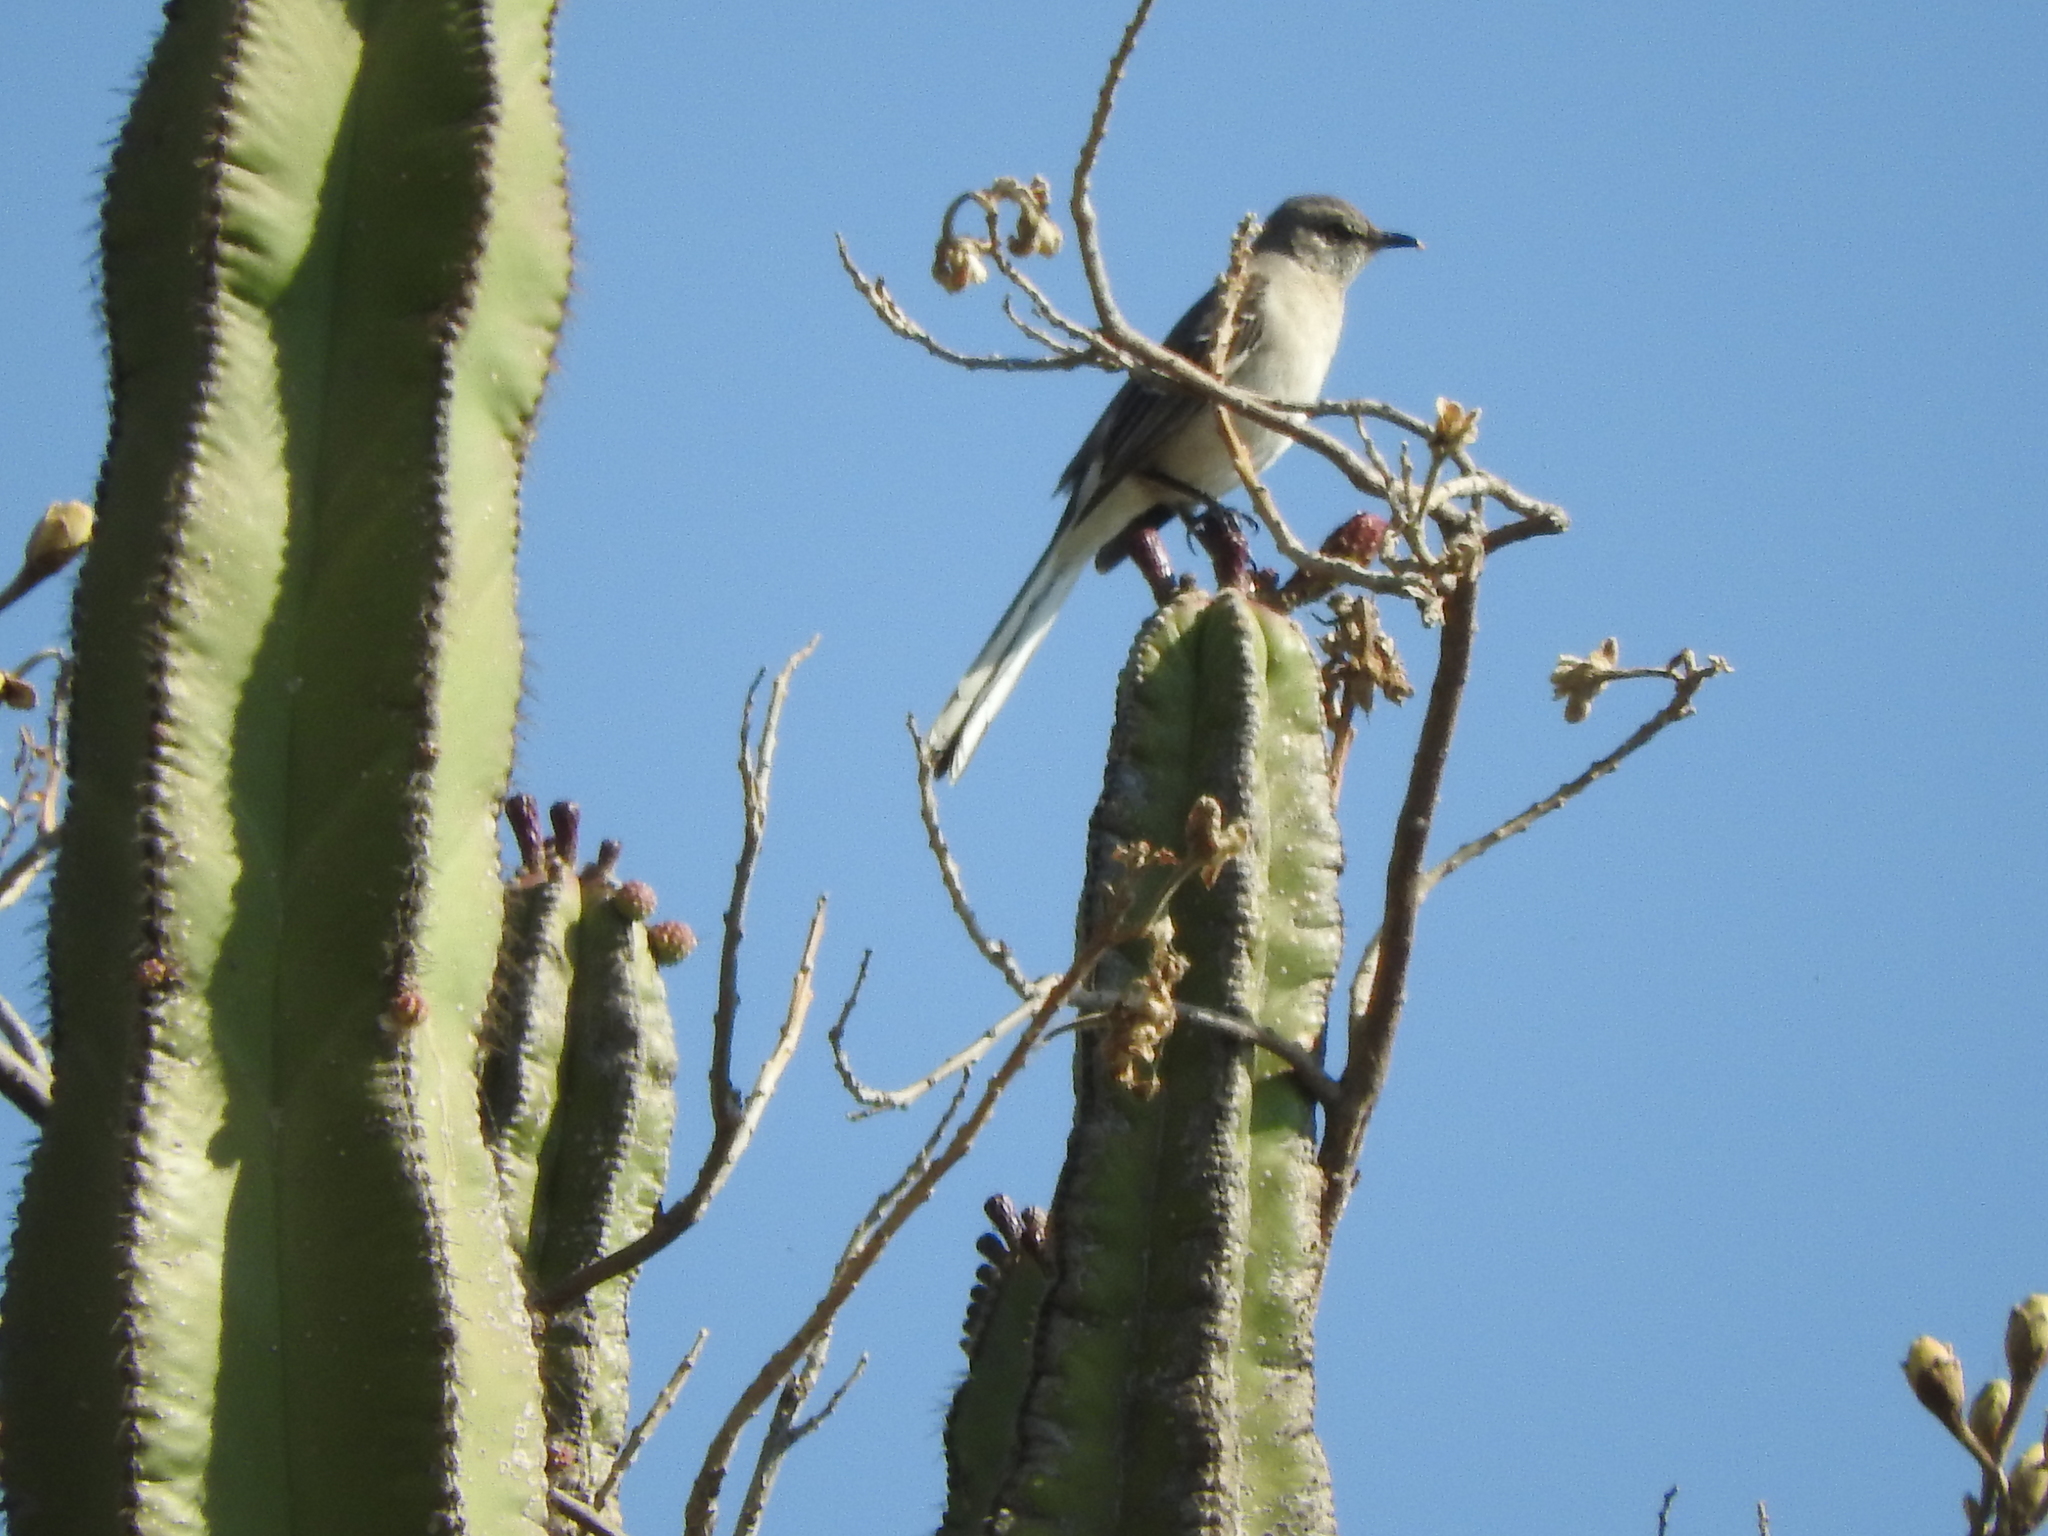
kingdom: Animalia
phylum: Chordata
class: Aves
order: Passeriformes
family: Mimidae
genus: Mimus
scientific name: Mimus polyglottos
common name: Northern mockingbird
